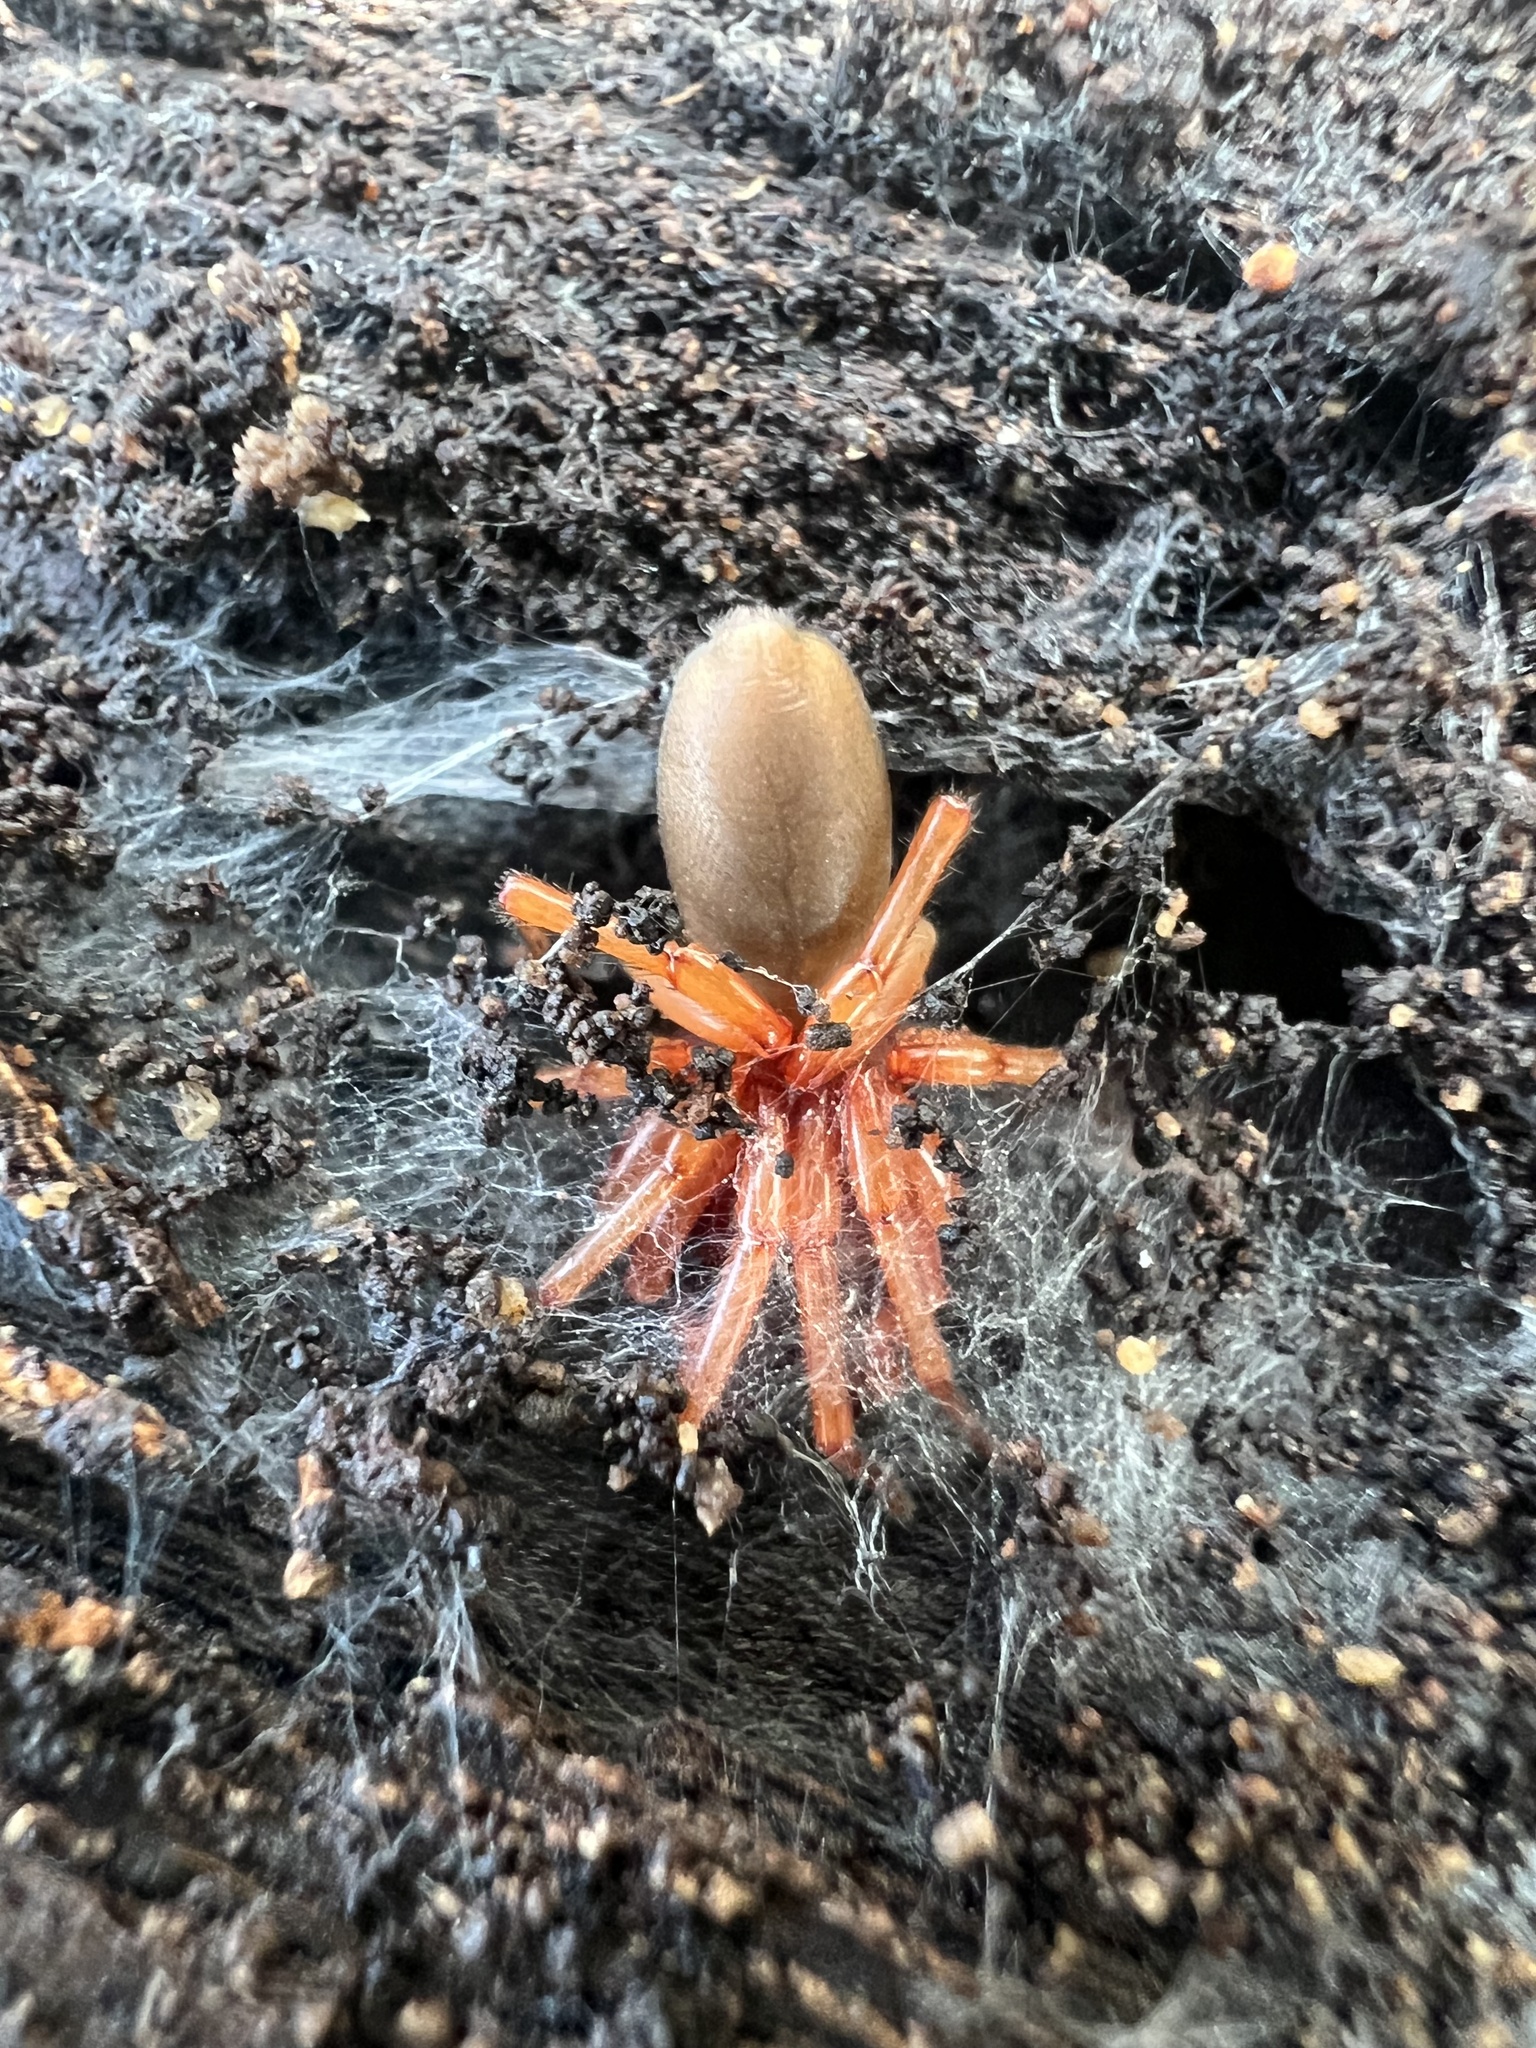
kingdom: Animalia
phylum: Arthropoda
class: Arachnida
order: Araneae
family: Dysderidae
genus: Dysdera
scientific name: Dysdera crocata
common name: Woodlouse spider
